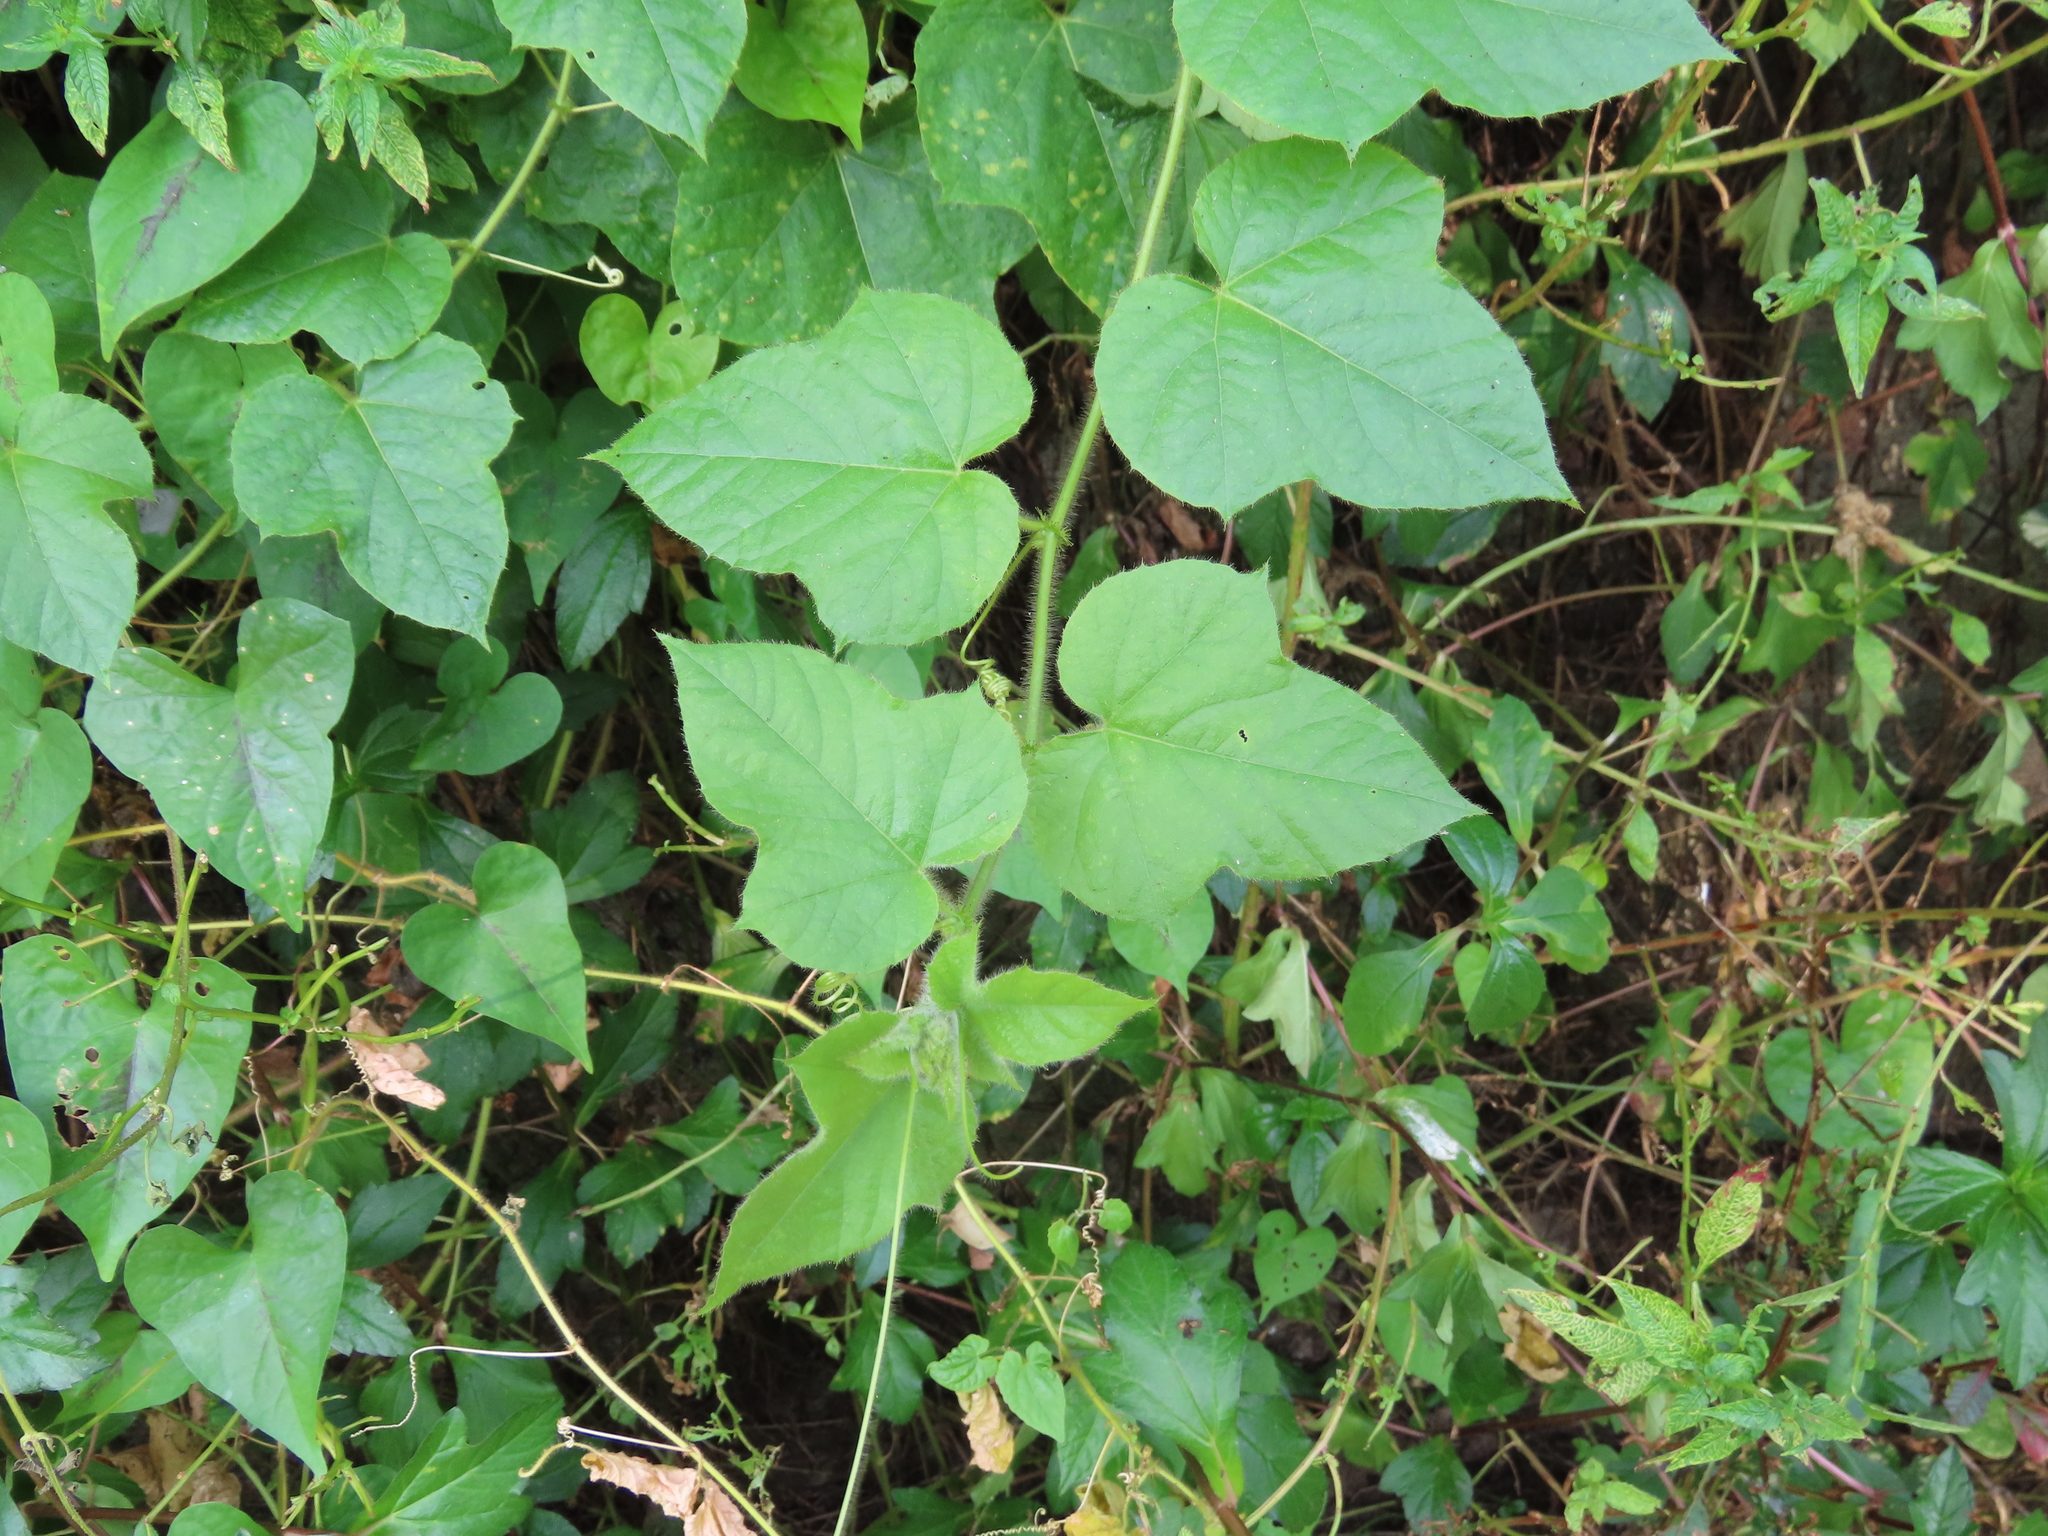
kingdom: Plantae
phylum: Tracheophyta
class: Magnoliopsida
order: Malpighiales
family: Passifloraceae
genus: Passiflora
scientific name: Passiflora foetida
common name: Fetid passionflower
